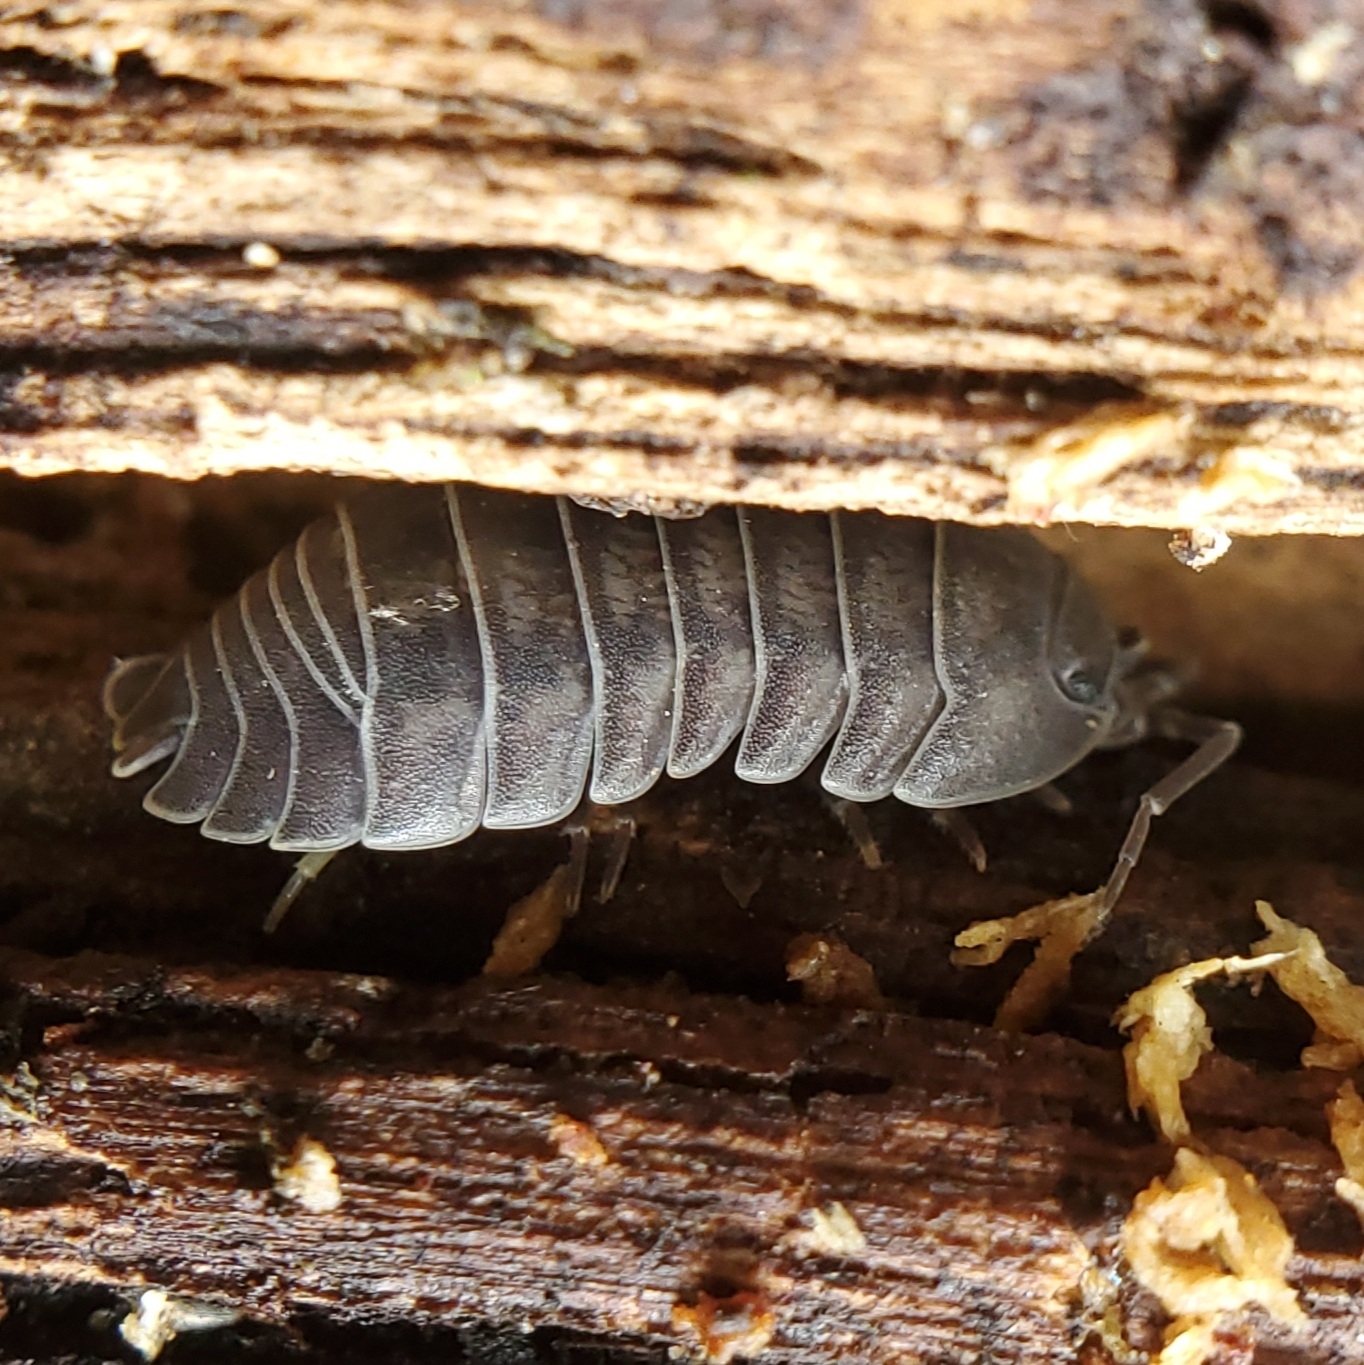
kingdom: Animalia
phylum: Arthropoda
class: Malacostraca
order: Isopoda
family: Armadillidiidae
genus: Armadillidium
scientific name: Armadillidium nasatum
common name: Isopod
